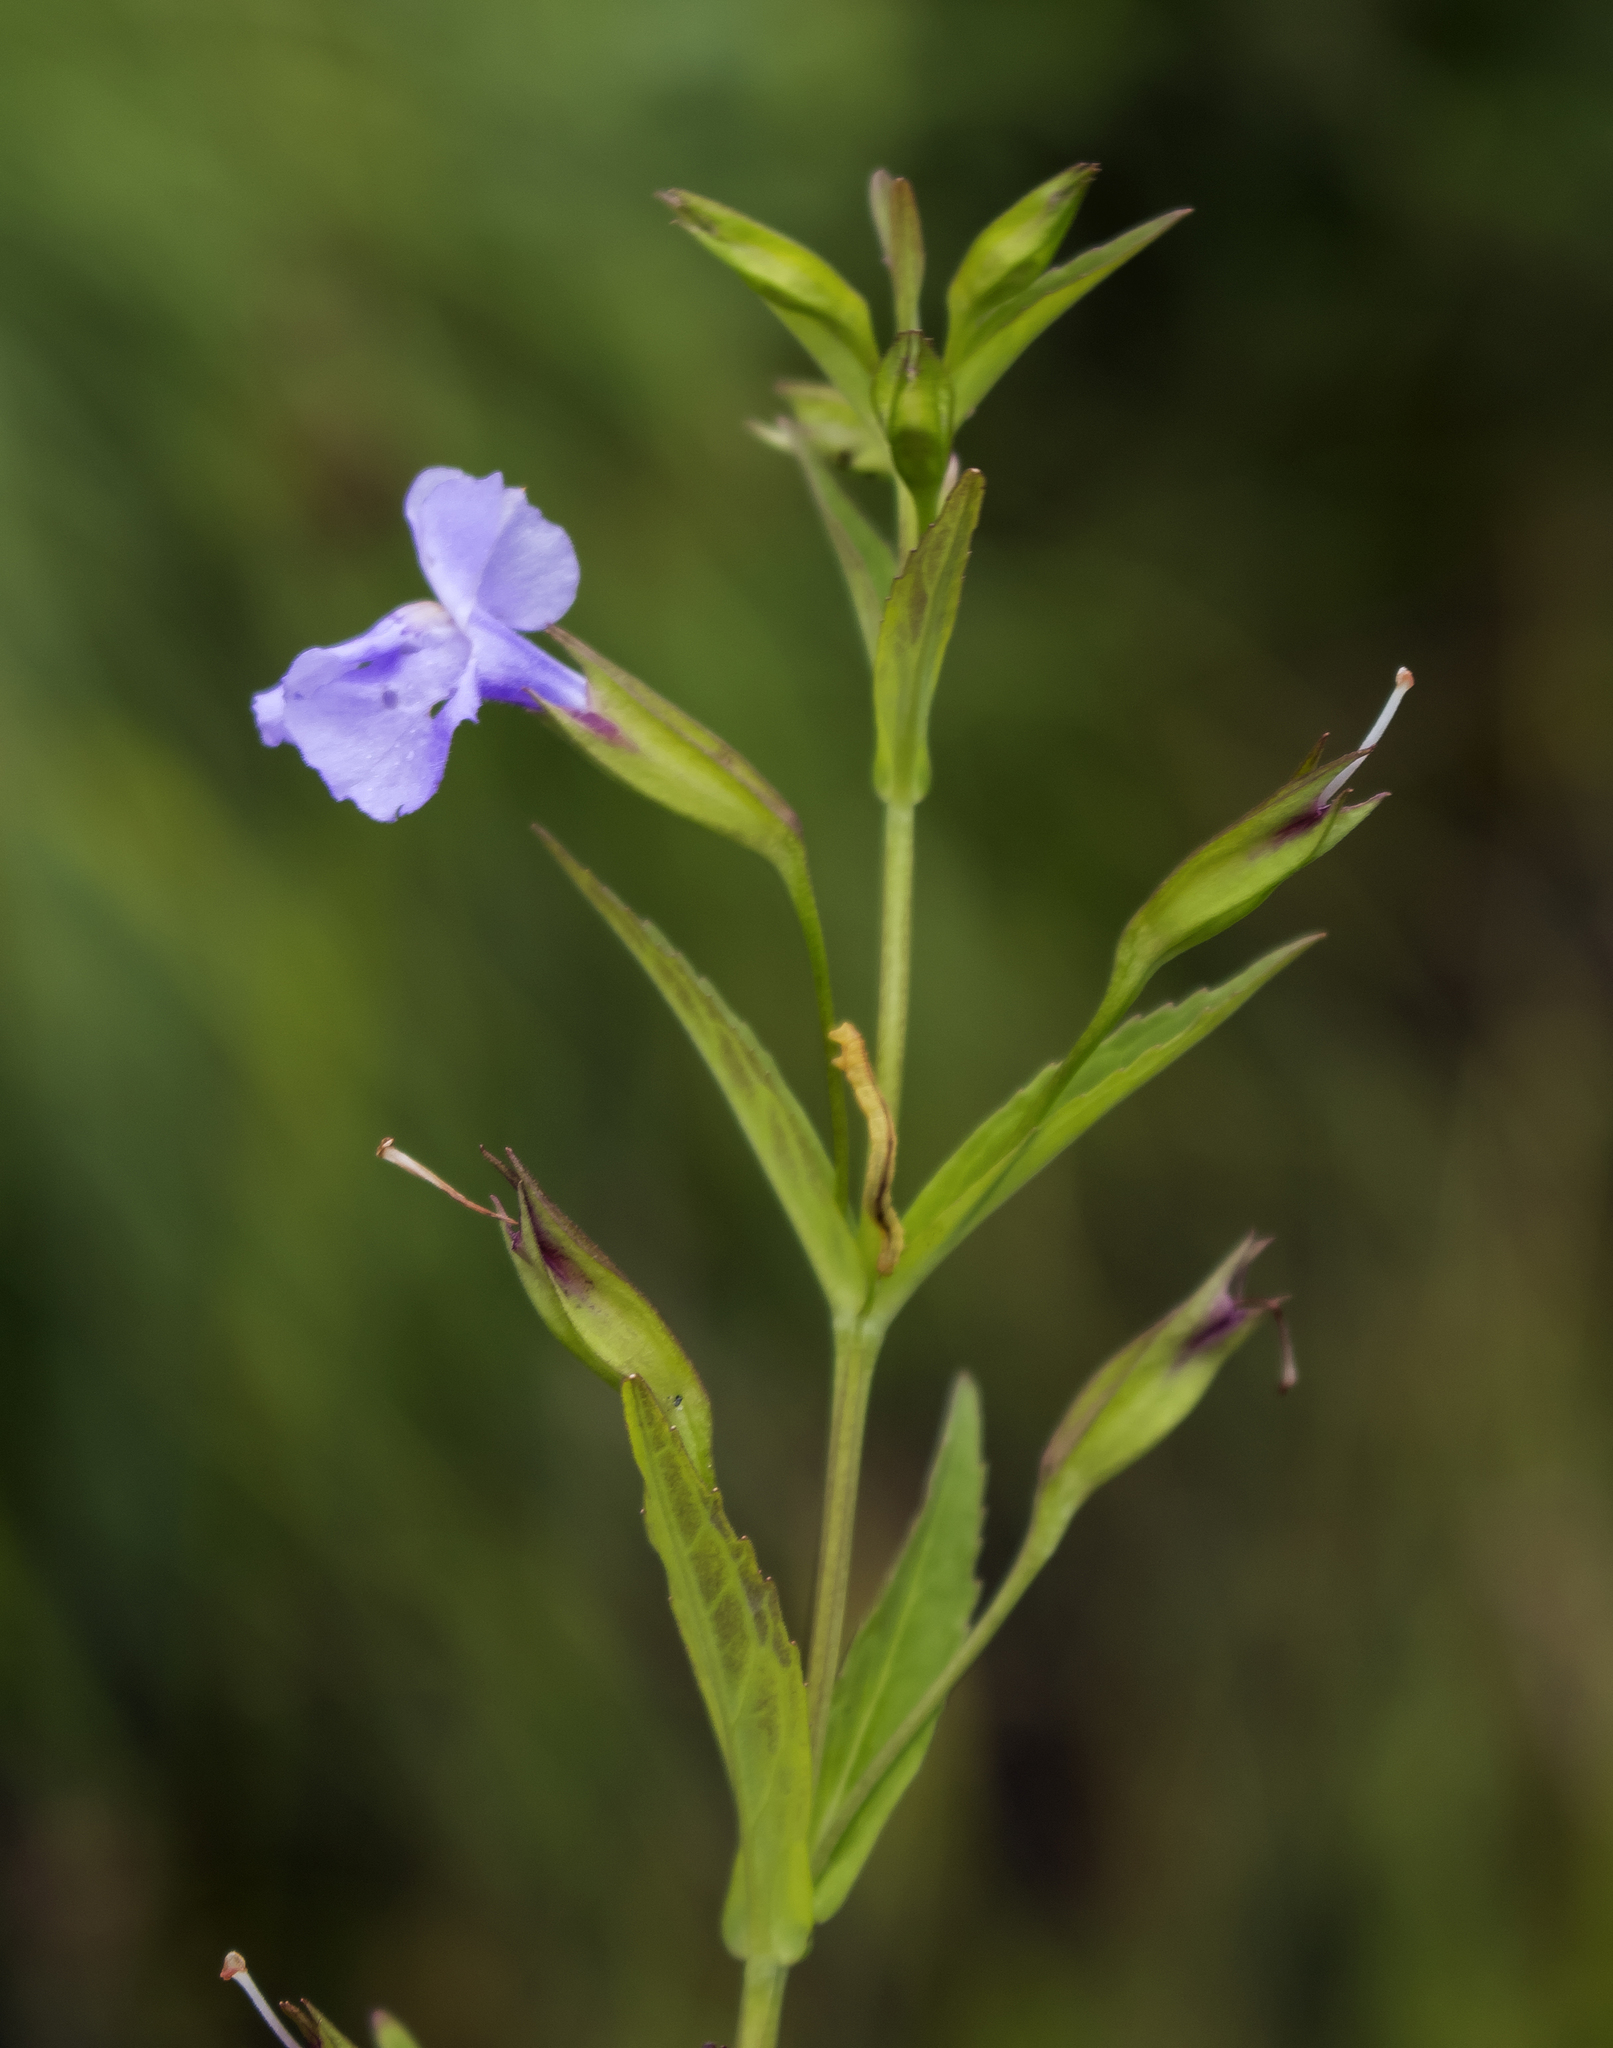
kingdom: Plantae
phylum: Tracheophyta
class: Magnoliopsida
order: Lamiales
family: Phrymaceae
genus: Mimulus
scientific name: Mimulus ringens
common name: Allegheny monkeyflower
